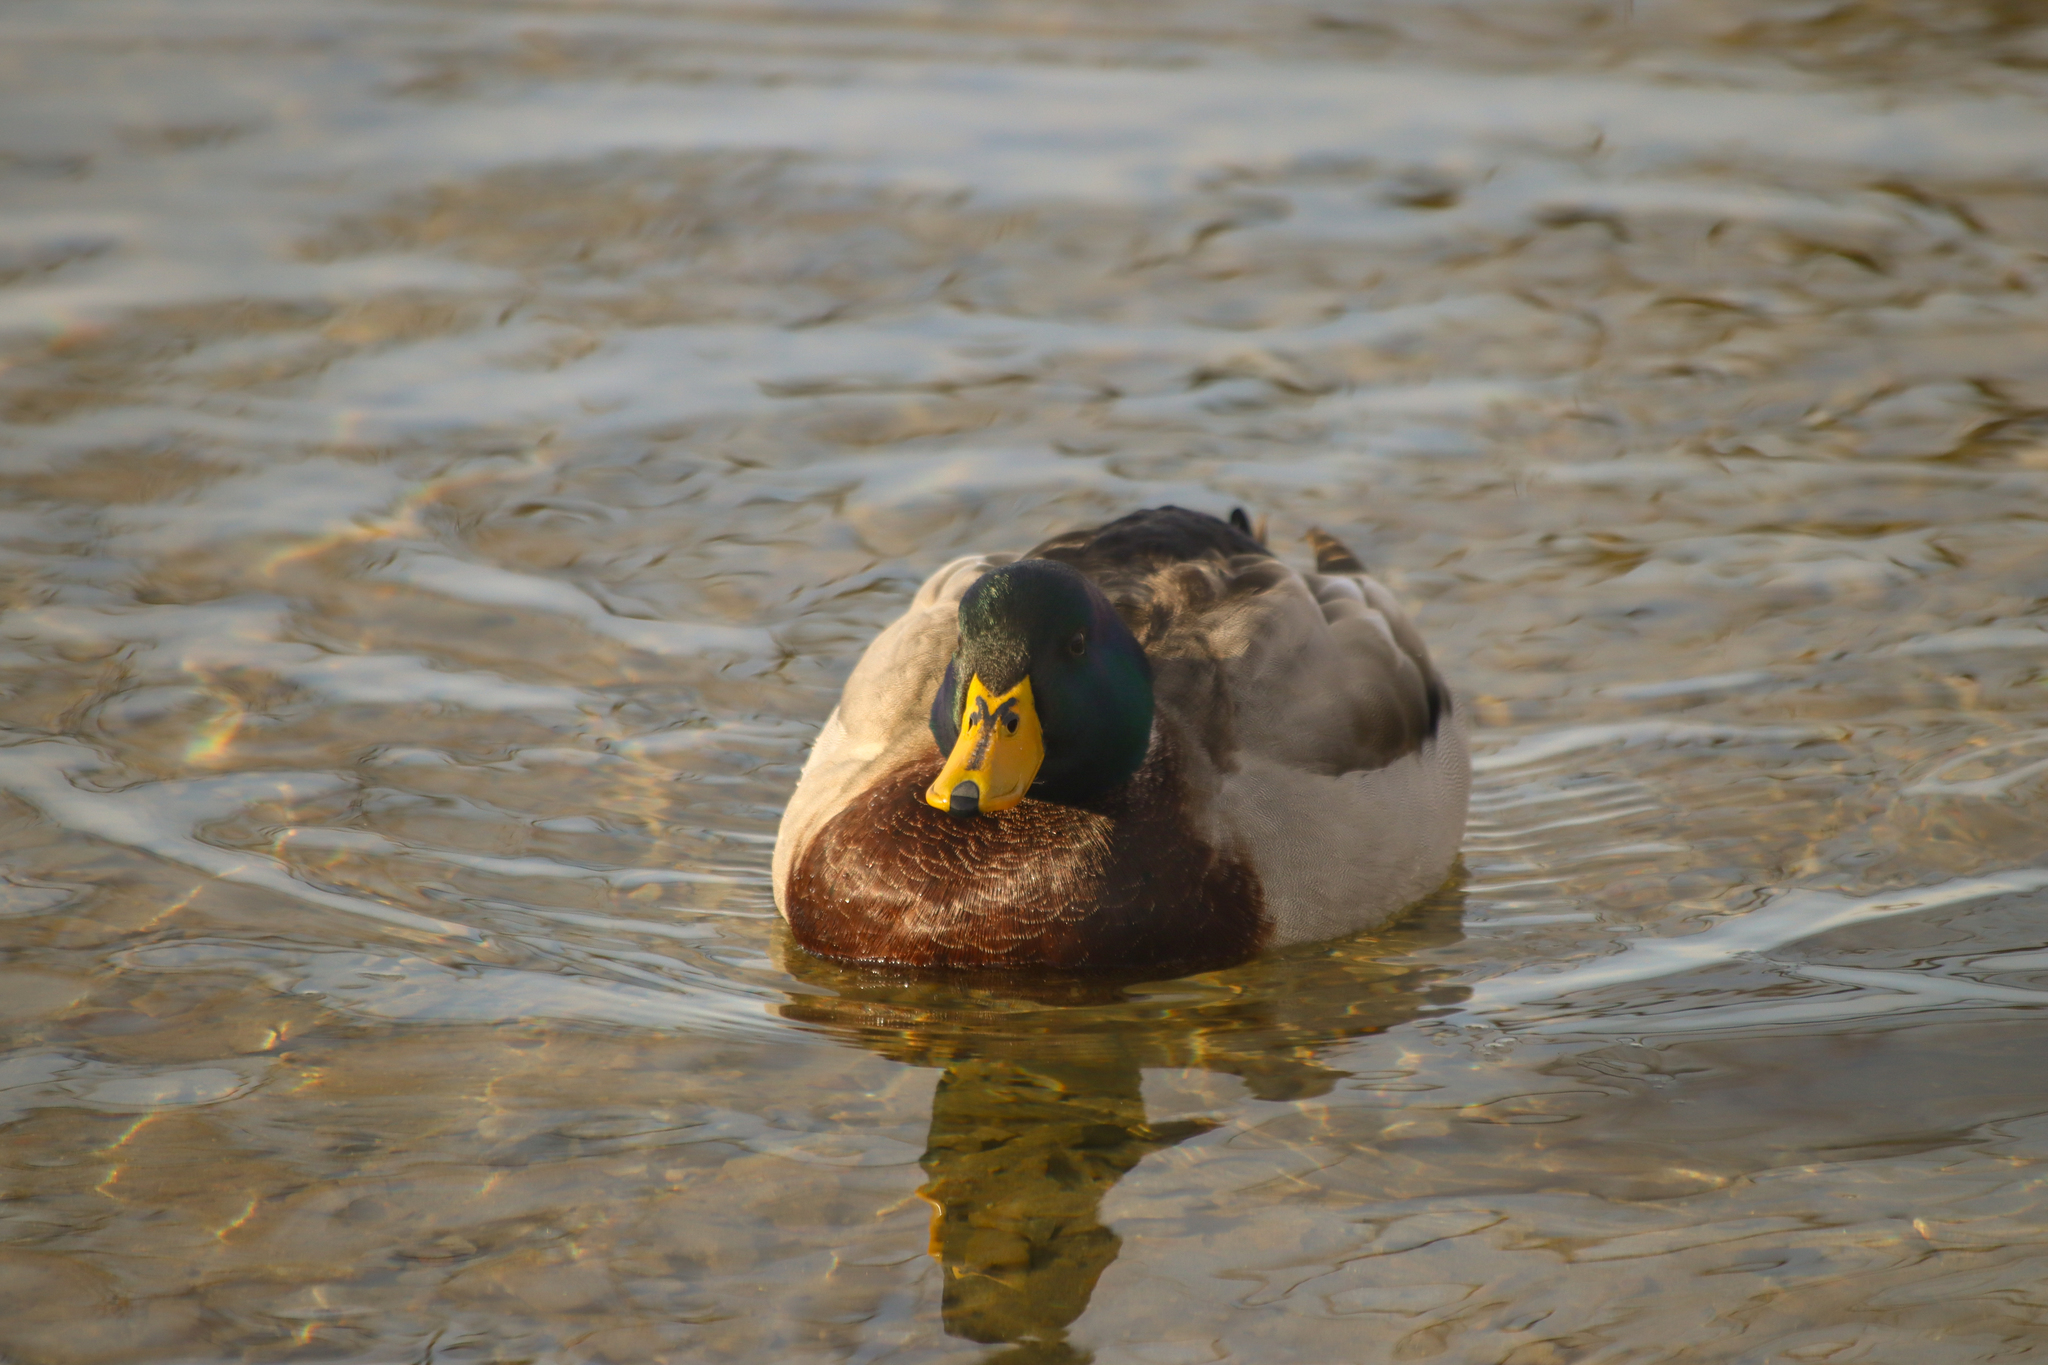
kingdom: Animalia
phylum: Chordata
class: Aves
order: Anseriformes
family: Anatidae
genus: Anas
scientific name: Anas platyrhynchos
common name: Mallard
